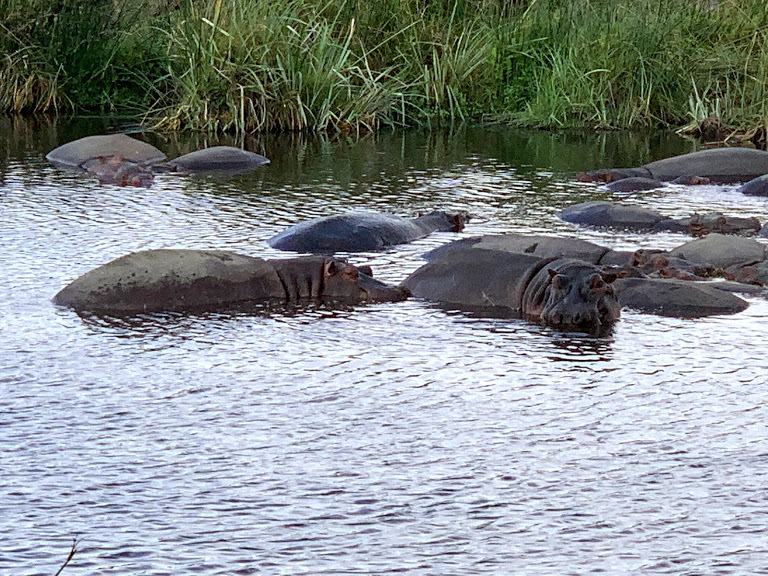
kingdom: Animalia
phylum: Chordata
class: Mammalia
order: Artiodactyla
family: Hippopotamidae
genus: Hippopotamus
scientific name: Hippopotamus amphibius
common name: Common hippopotamus
